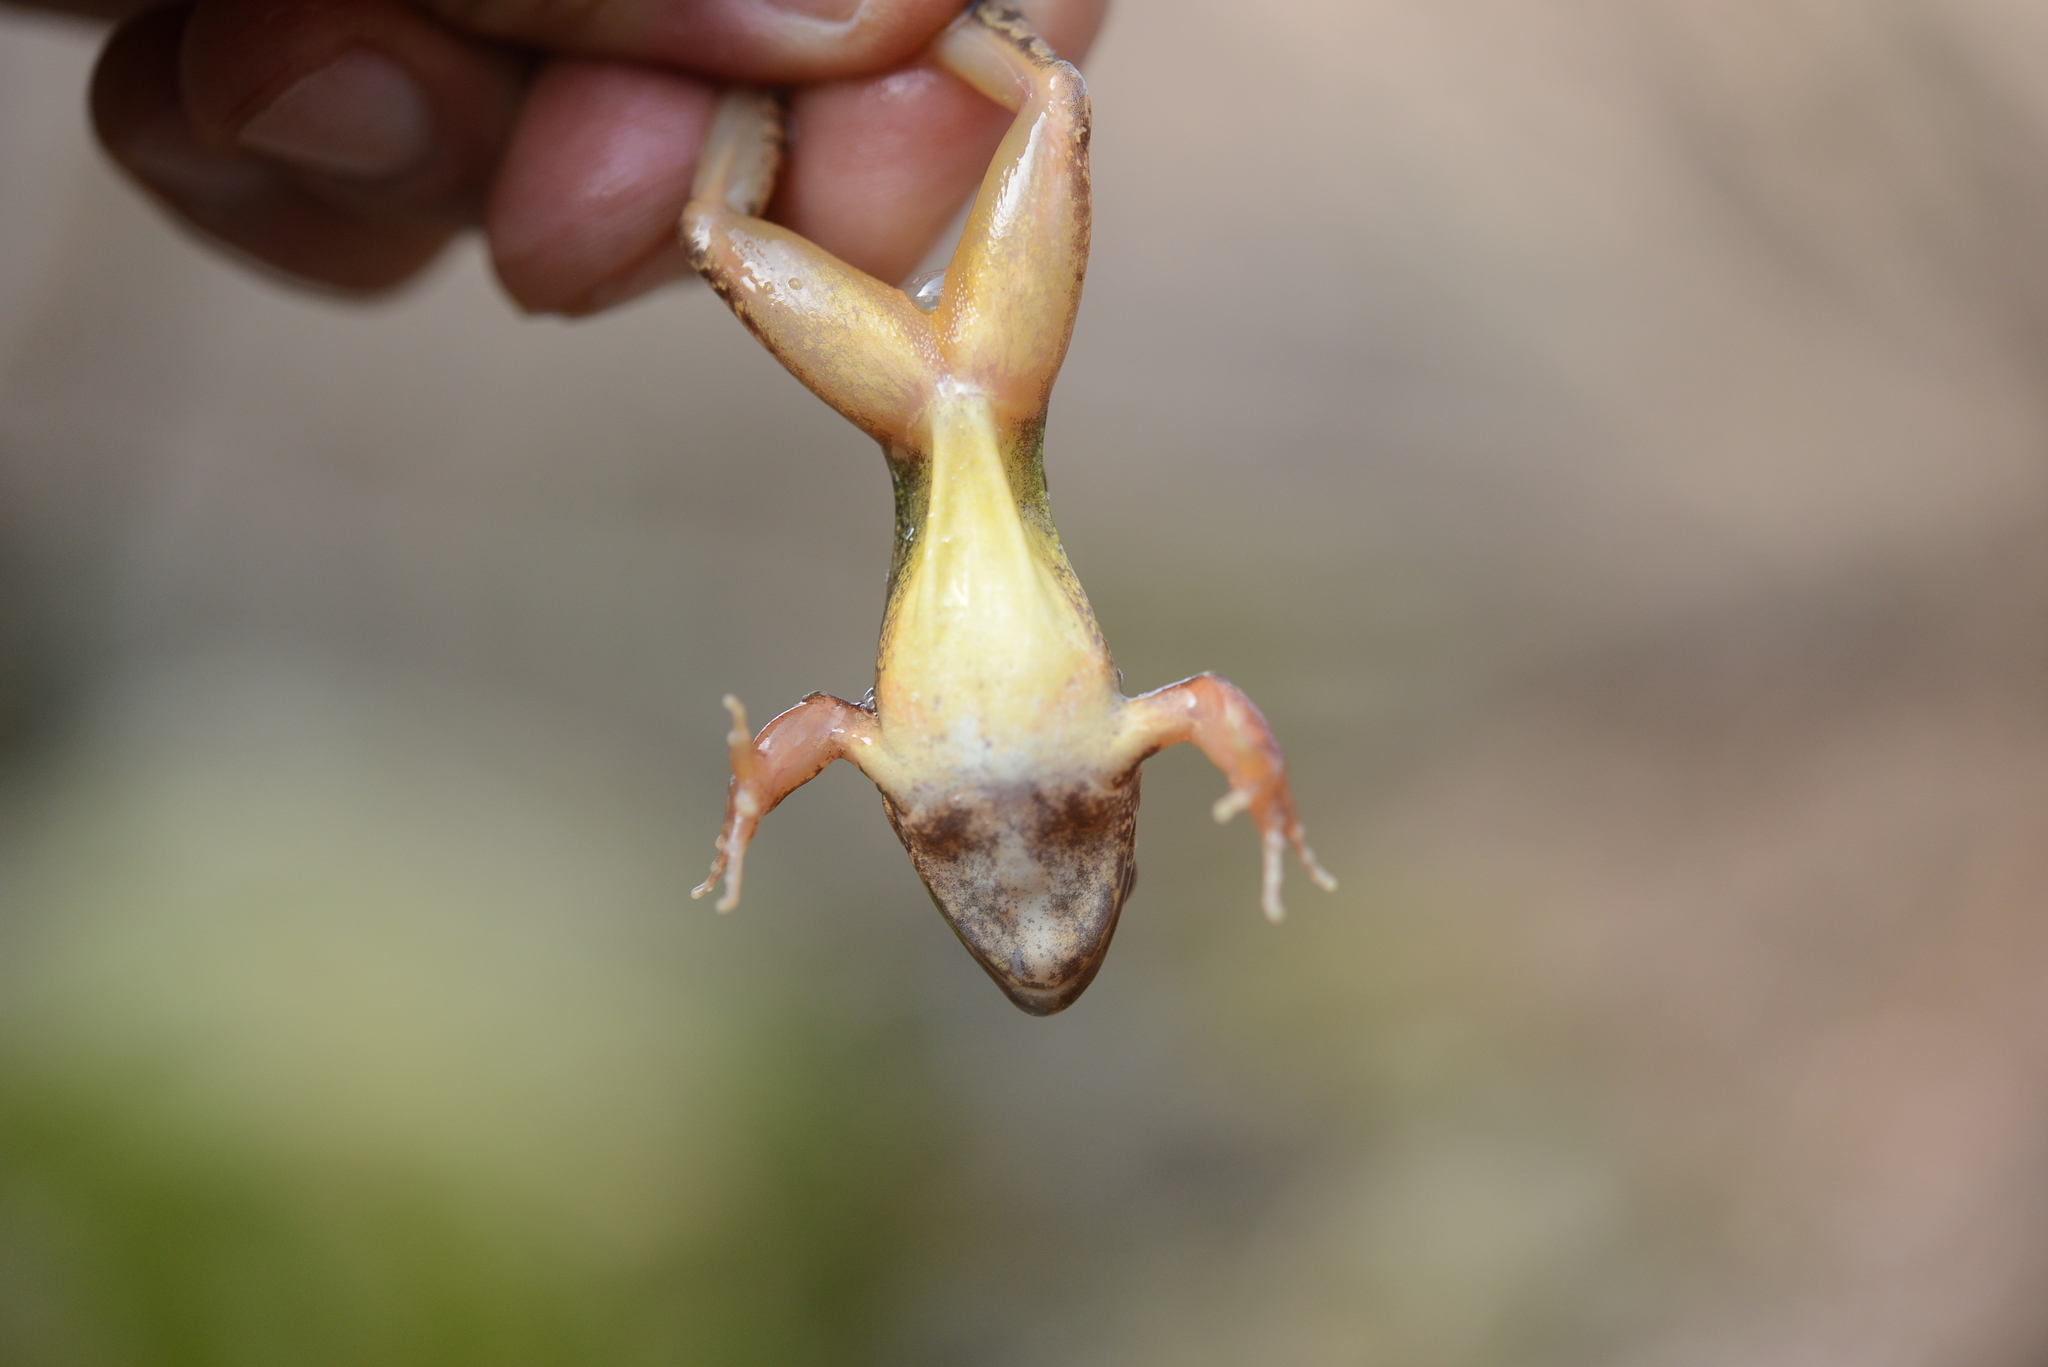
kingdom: Animalia
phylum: Chordata
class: Amphibia
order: Anura
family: Ranidae
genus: Rana
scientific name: Rana uenoi
